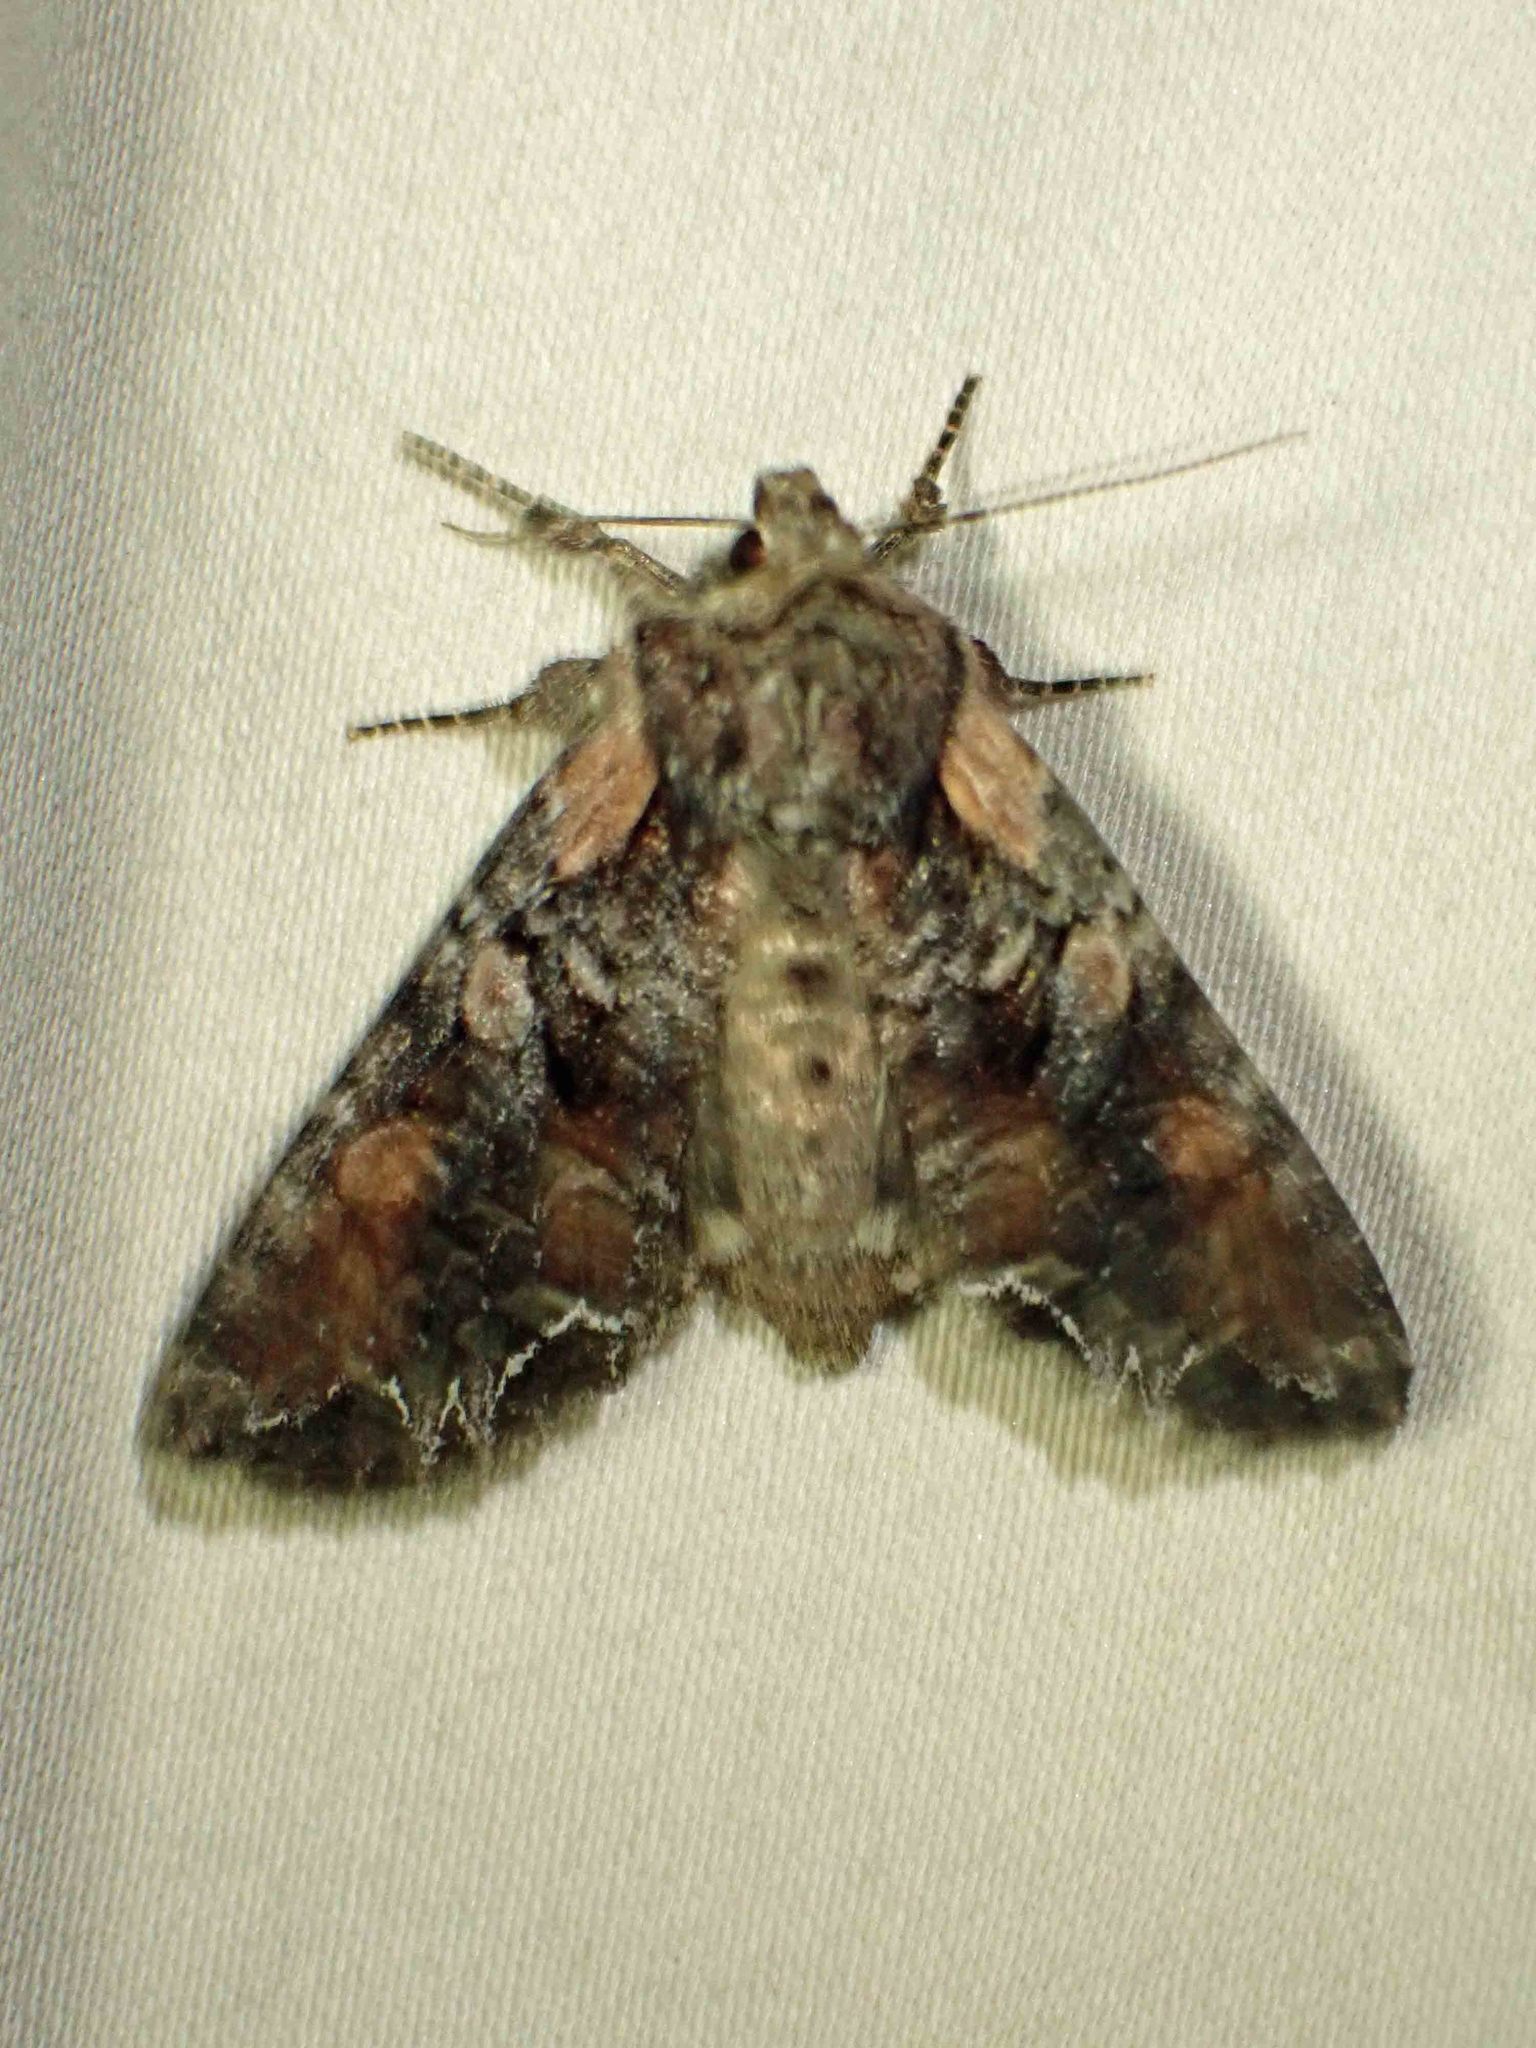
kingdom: Animalia
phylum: Arthropoda
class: Insecta
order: Lepidoptera
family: Noctuidae
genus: Lacanobia
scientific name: Lacanobia nevadae
